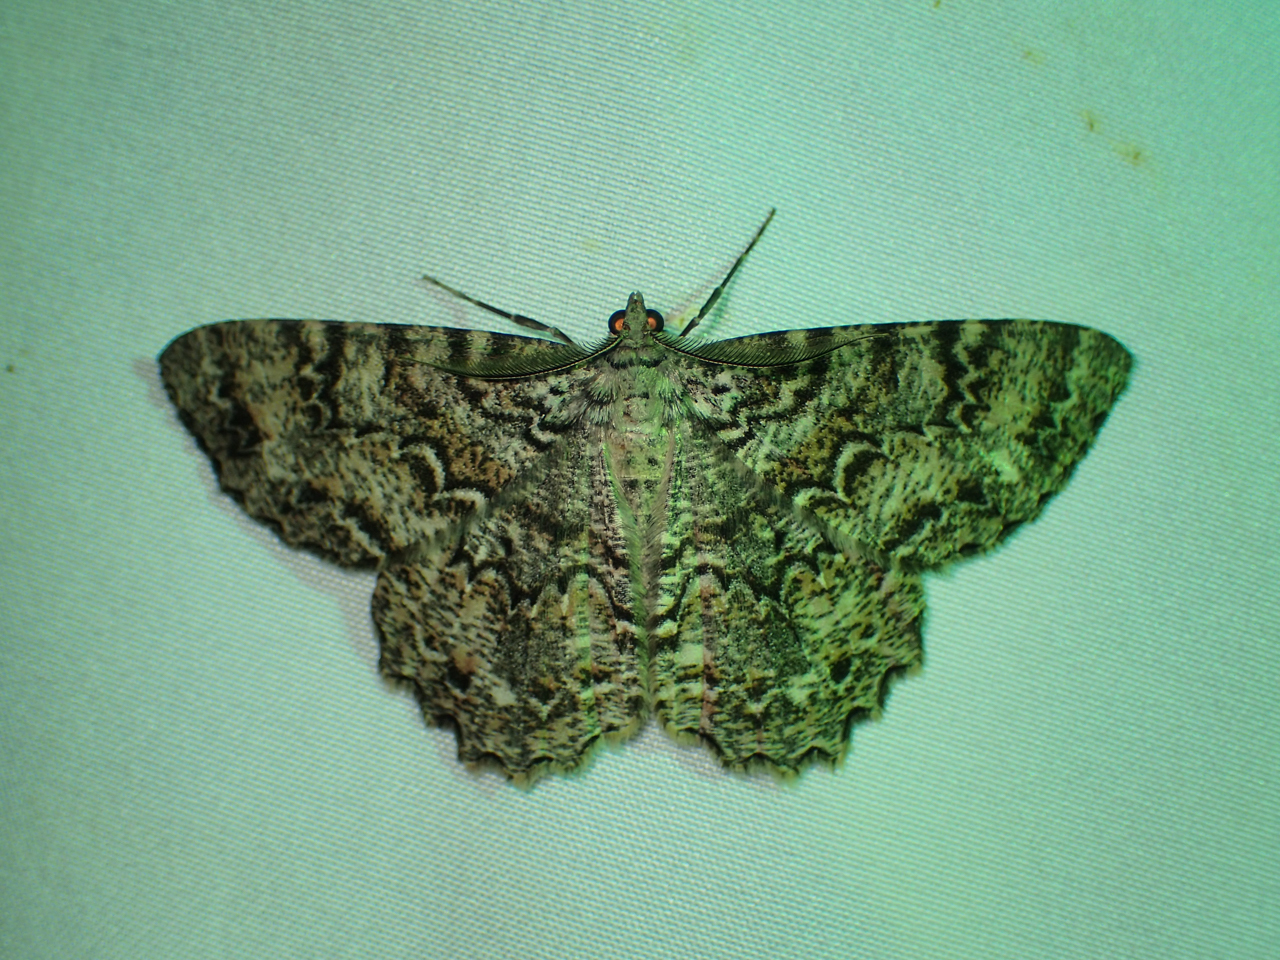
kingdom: Animalia
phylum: Arthropoda
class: Insecta
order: Lepidoptera
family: Geometridae
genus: Epimecis
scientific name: Epimecis hortaria
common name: Tulip-tree beauty
